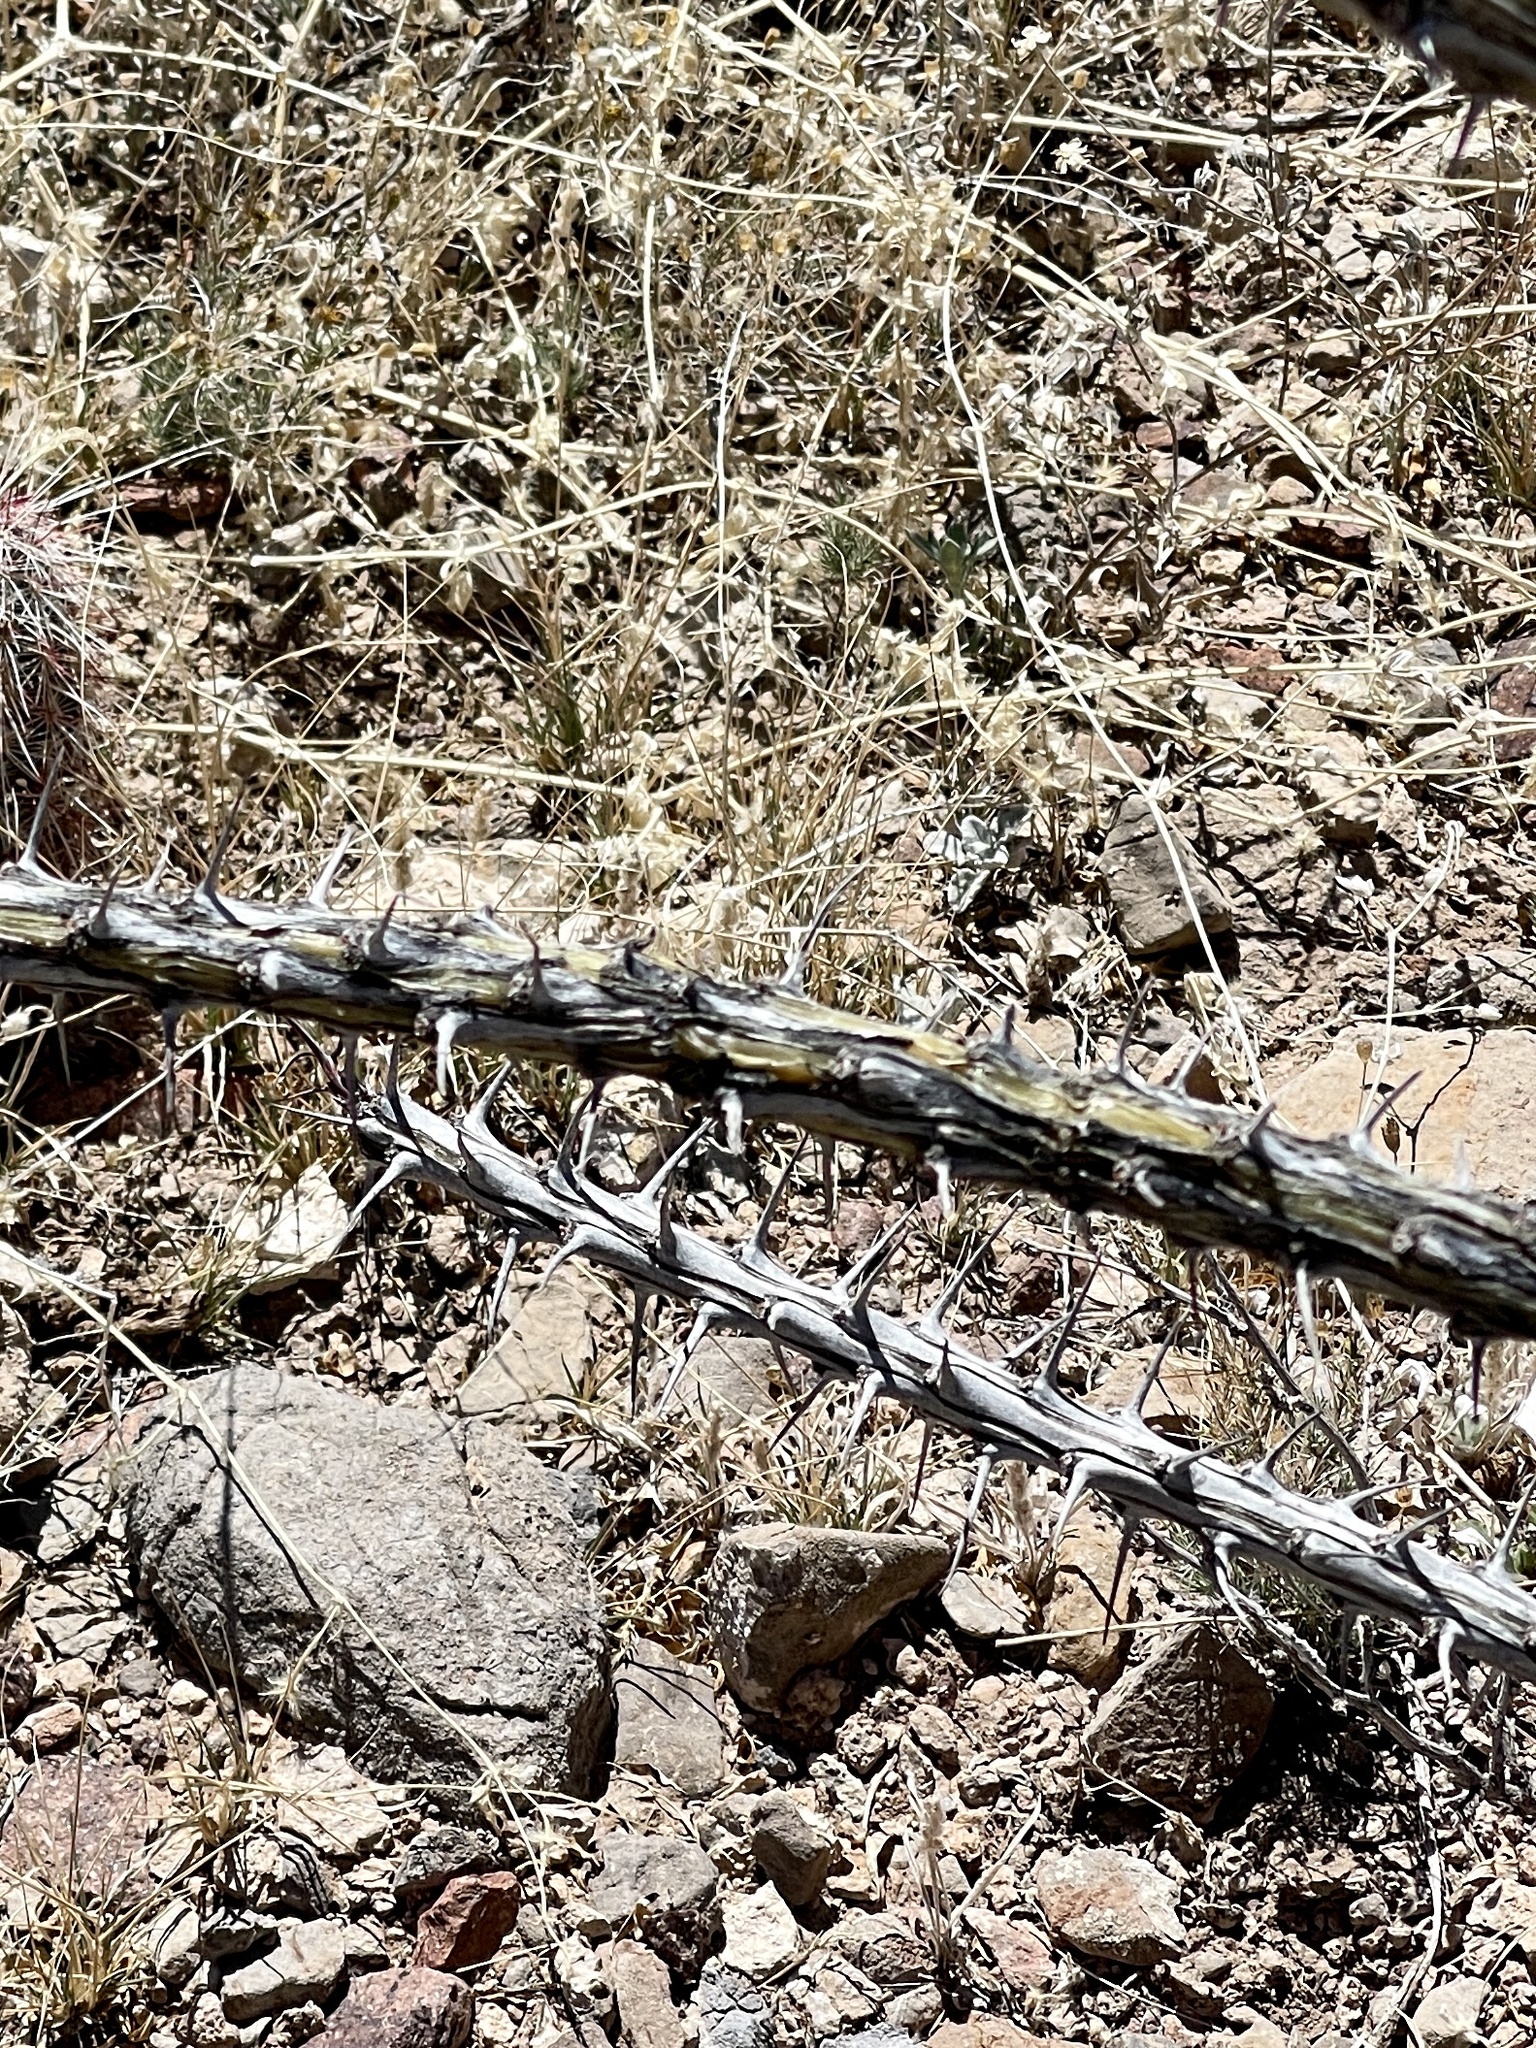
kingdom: Plantae
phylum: Tracheophyta
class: Magnoliopsida
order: Ericales
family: Fouquieriaceae
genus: Fouquieria
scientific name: Fouquieria splendens
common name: Vine-cactus
